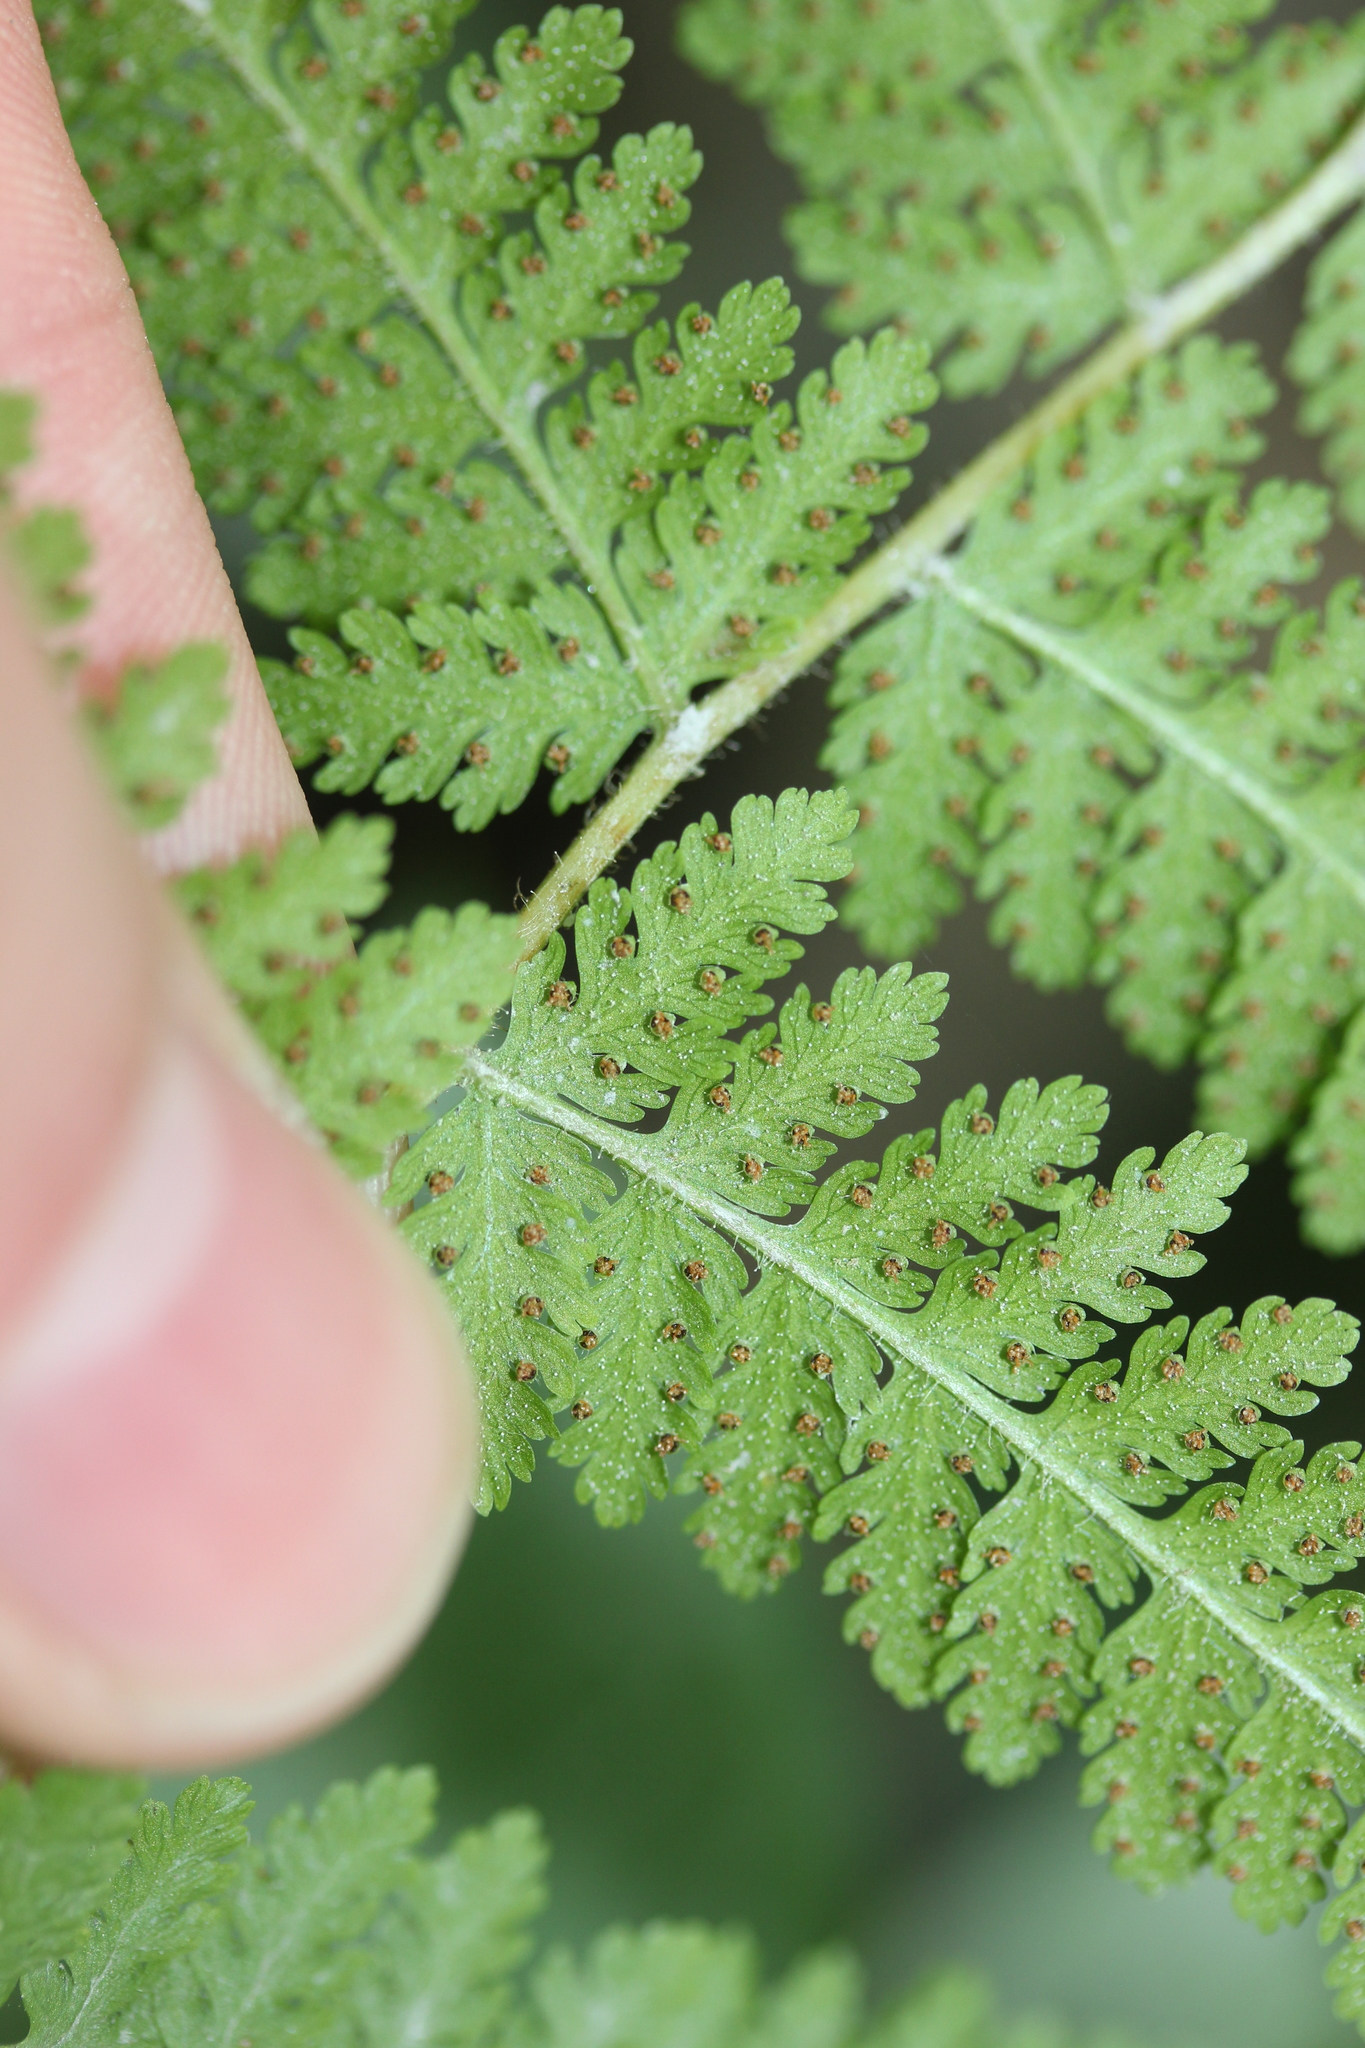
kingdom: Plantae
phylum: Tracheophyta
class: Polypodiopsida
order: Polypodiales
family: Dennstaedtiaceae
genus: Sitobolium
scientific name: Sitobolium punctilobum
